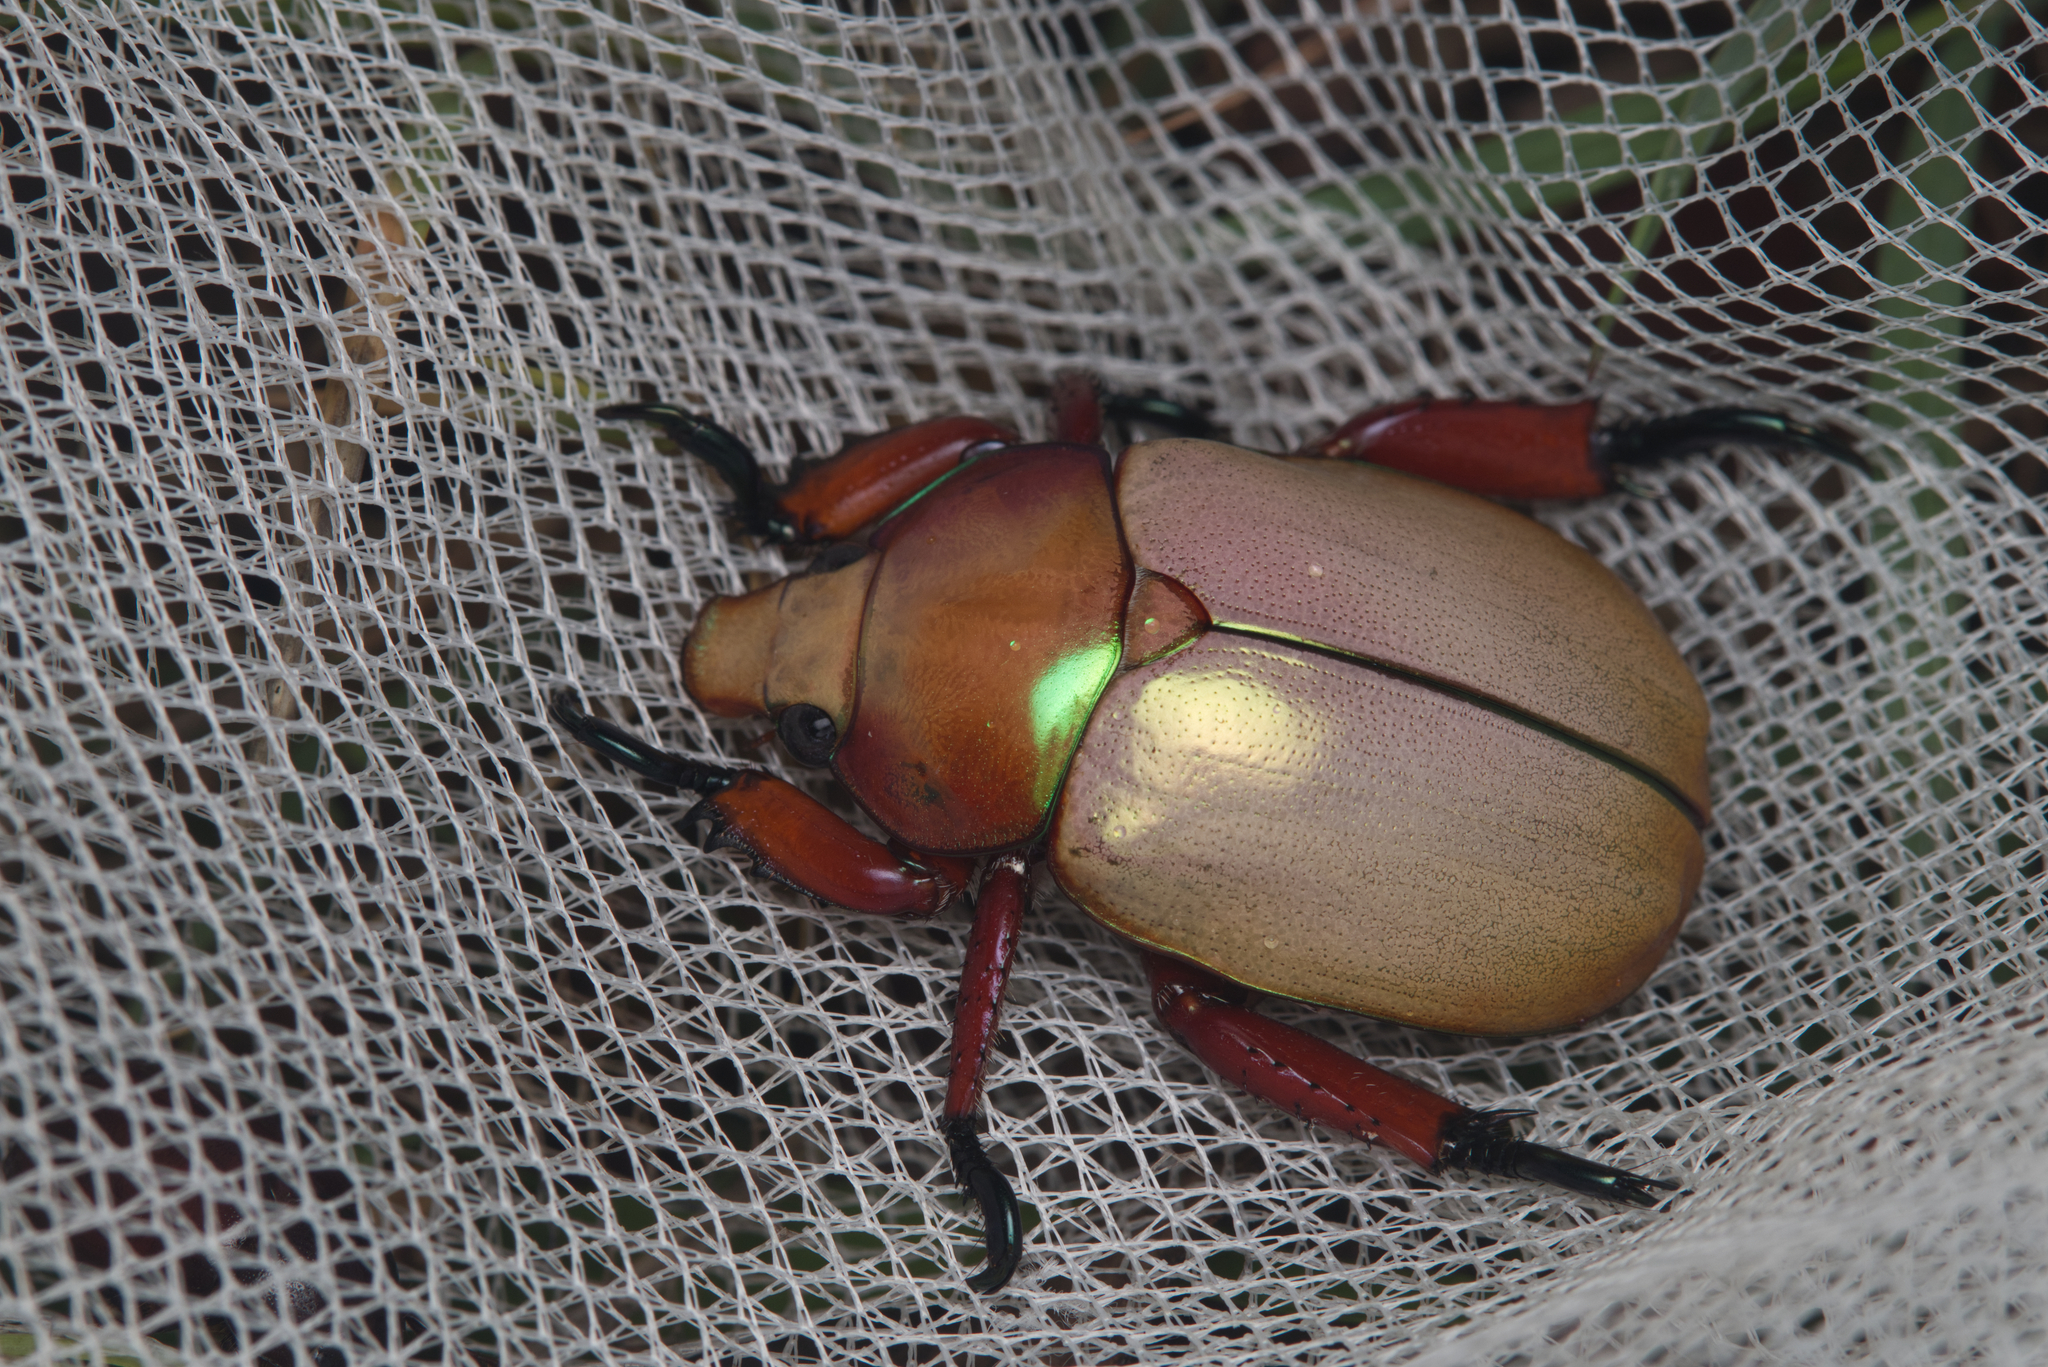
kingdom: Animalia
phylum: Arthropoda
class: Insecta
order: Coleoptera
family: Scarabaeidae
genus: Anoplognathus
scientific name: Anoplognathus montanus
